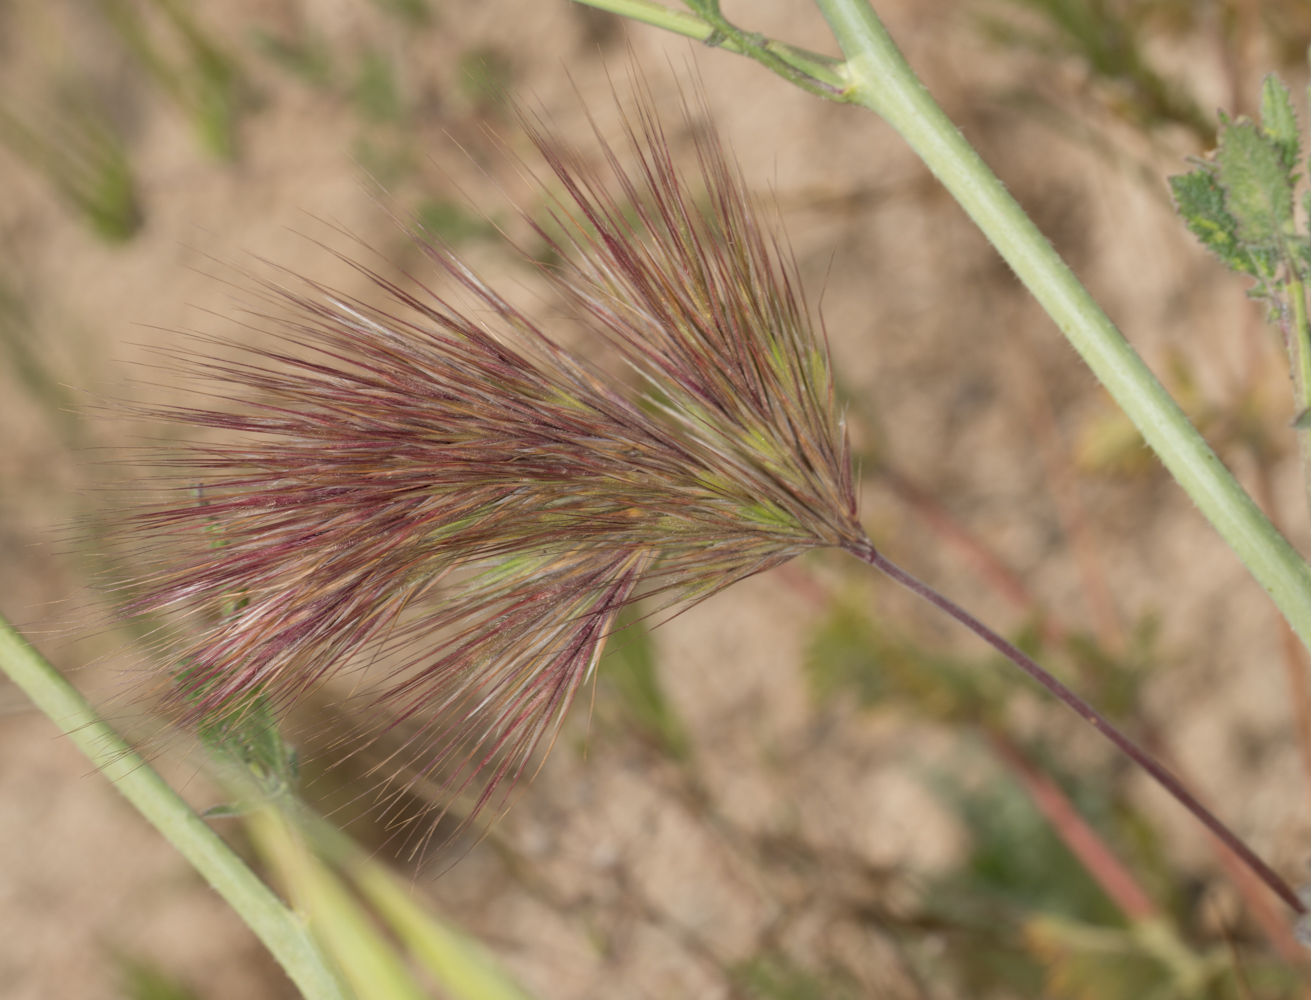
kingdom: Plantae
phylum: Tracheophyta
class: Liliopsida
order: Poales
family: Poaceae
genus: Bromus
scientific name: Bromus rubens
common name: Red brome
